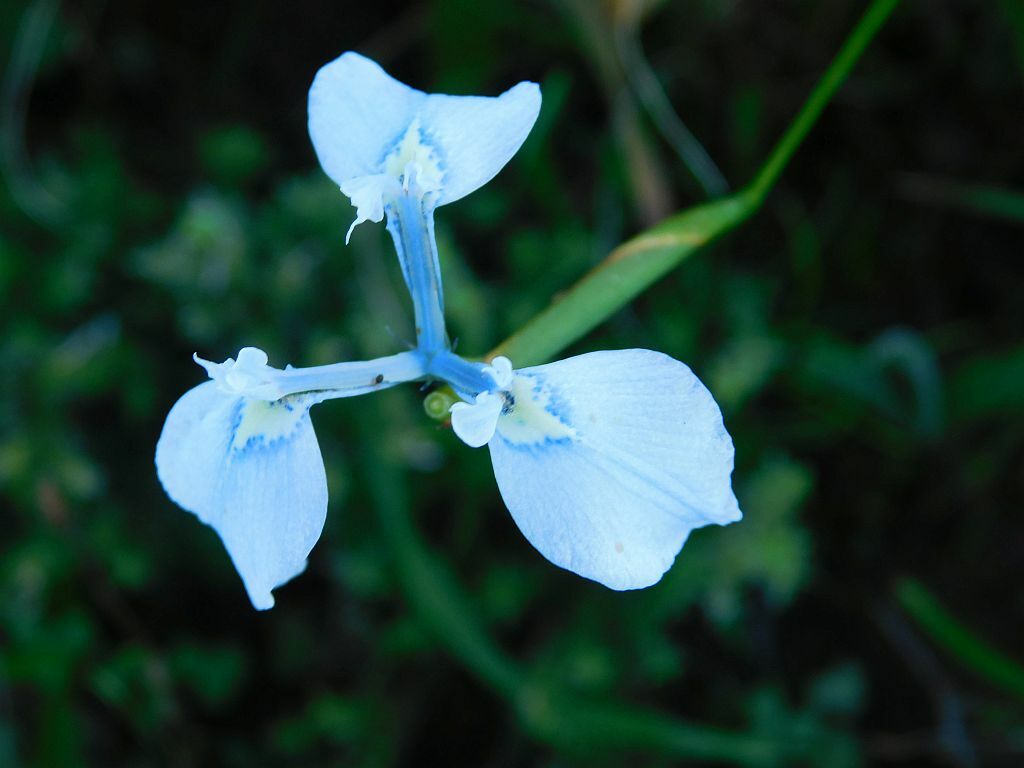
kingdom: Plantae
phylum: Tracheophyta
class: Liliopsida
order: Asparagales
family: Iridaceae
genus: Moraea
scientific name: Moraea tripetala
